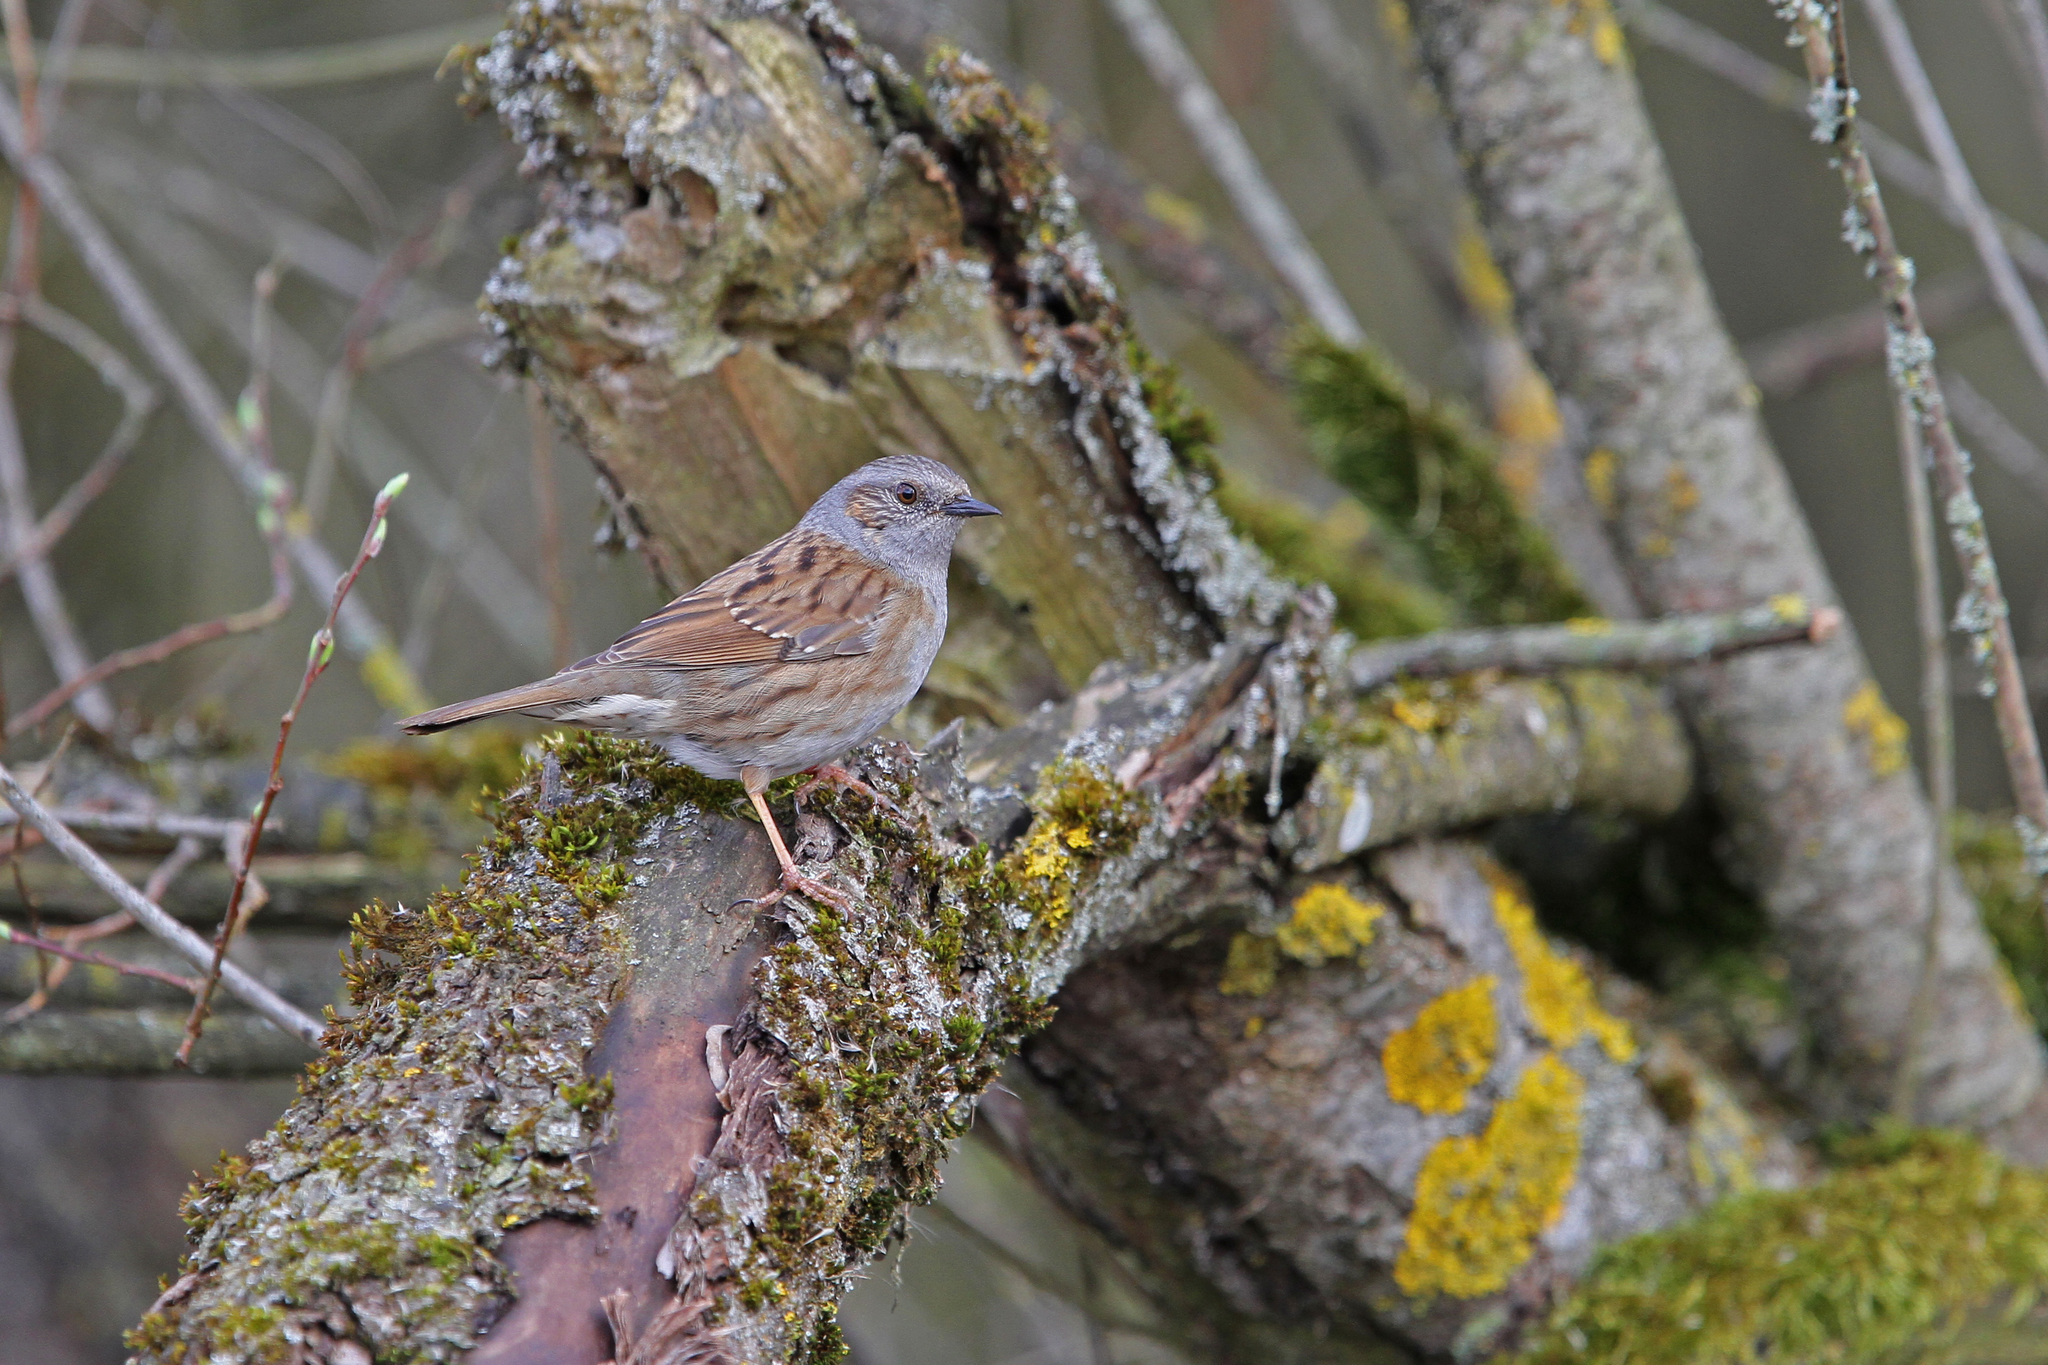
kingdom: Animalia
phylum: Chordata
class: Aves
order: Passeriformes
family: Prunellidae
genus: Prunella
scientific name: Prunella modularis
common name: Dunnock
